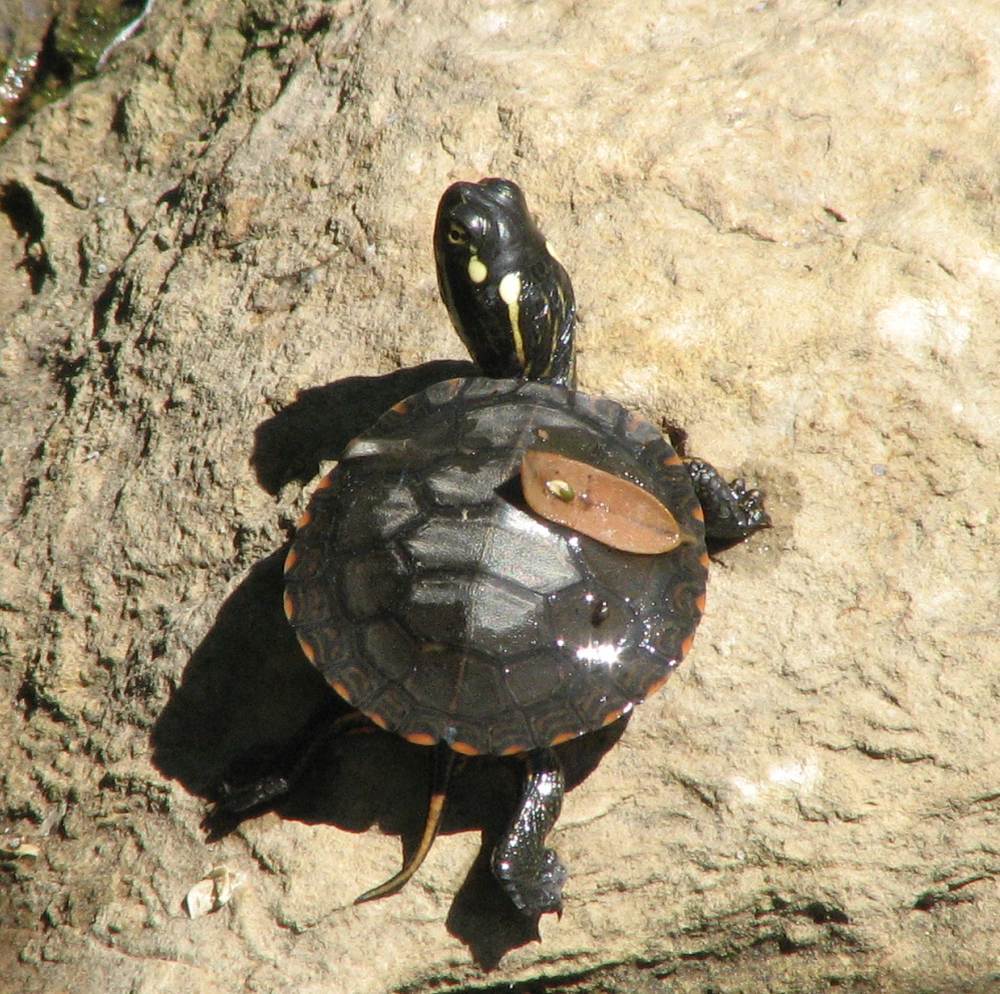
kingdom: Animalia
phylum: Chordata
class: Testudines
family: Emydidae
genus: Chrysemys
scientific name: Chrysemys picta
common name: Painted turtle
